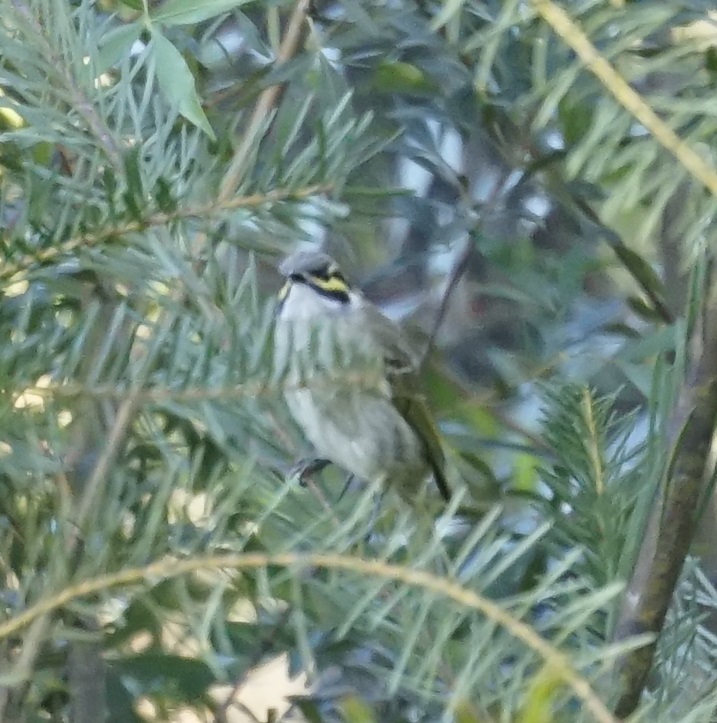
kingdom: Animalia
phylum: Chordata
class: Aves
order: Passeriformes
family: Meliphagidae
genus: Caligavis
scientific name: Caligavis chrysops
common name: Yellow-faced honeyeater
